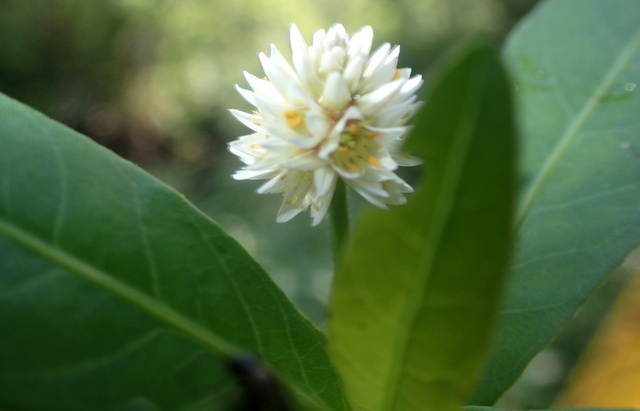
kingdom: Plantae
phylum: Tracheophyta
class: Magnoliopsida
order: Caryophyllales
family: Amaranthaceae
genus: Alternanthera
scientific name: Alternanthera philoxeroides
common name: Alligatorweed
